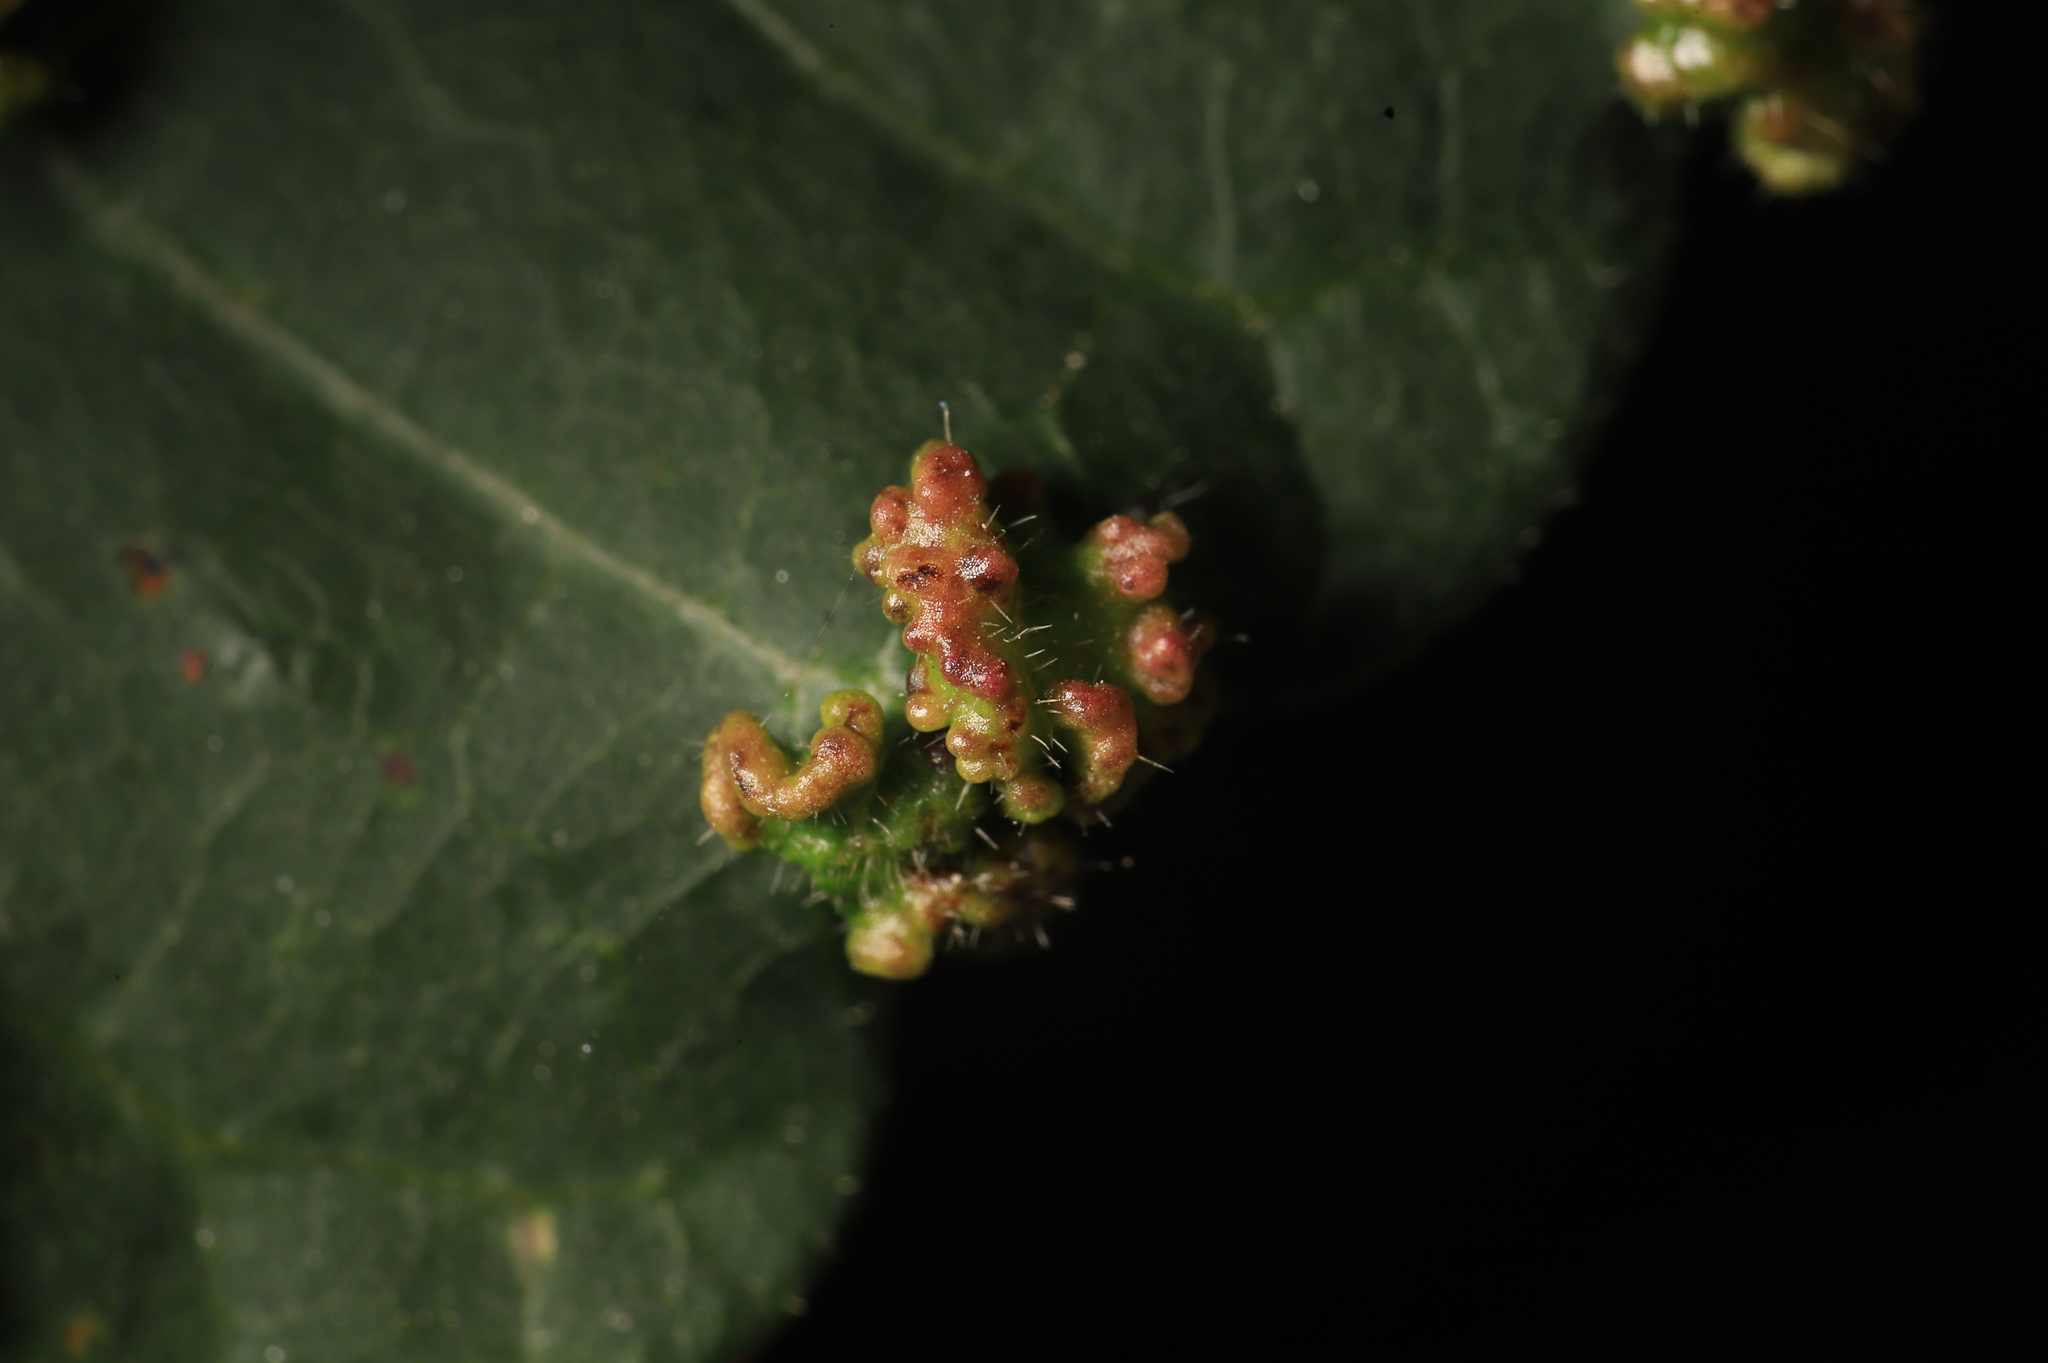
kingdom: Animalia
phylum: Arthropoda
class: Arachnida
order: Trombidiformes
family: Eriophyidae
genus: Aculops
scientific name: Aculops
